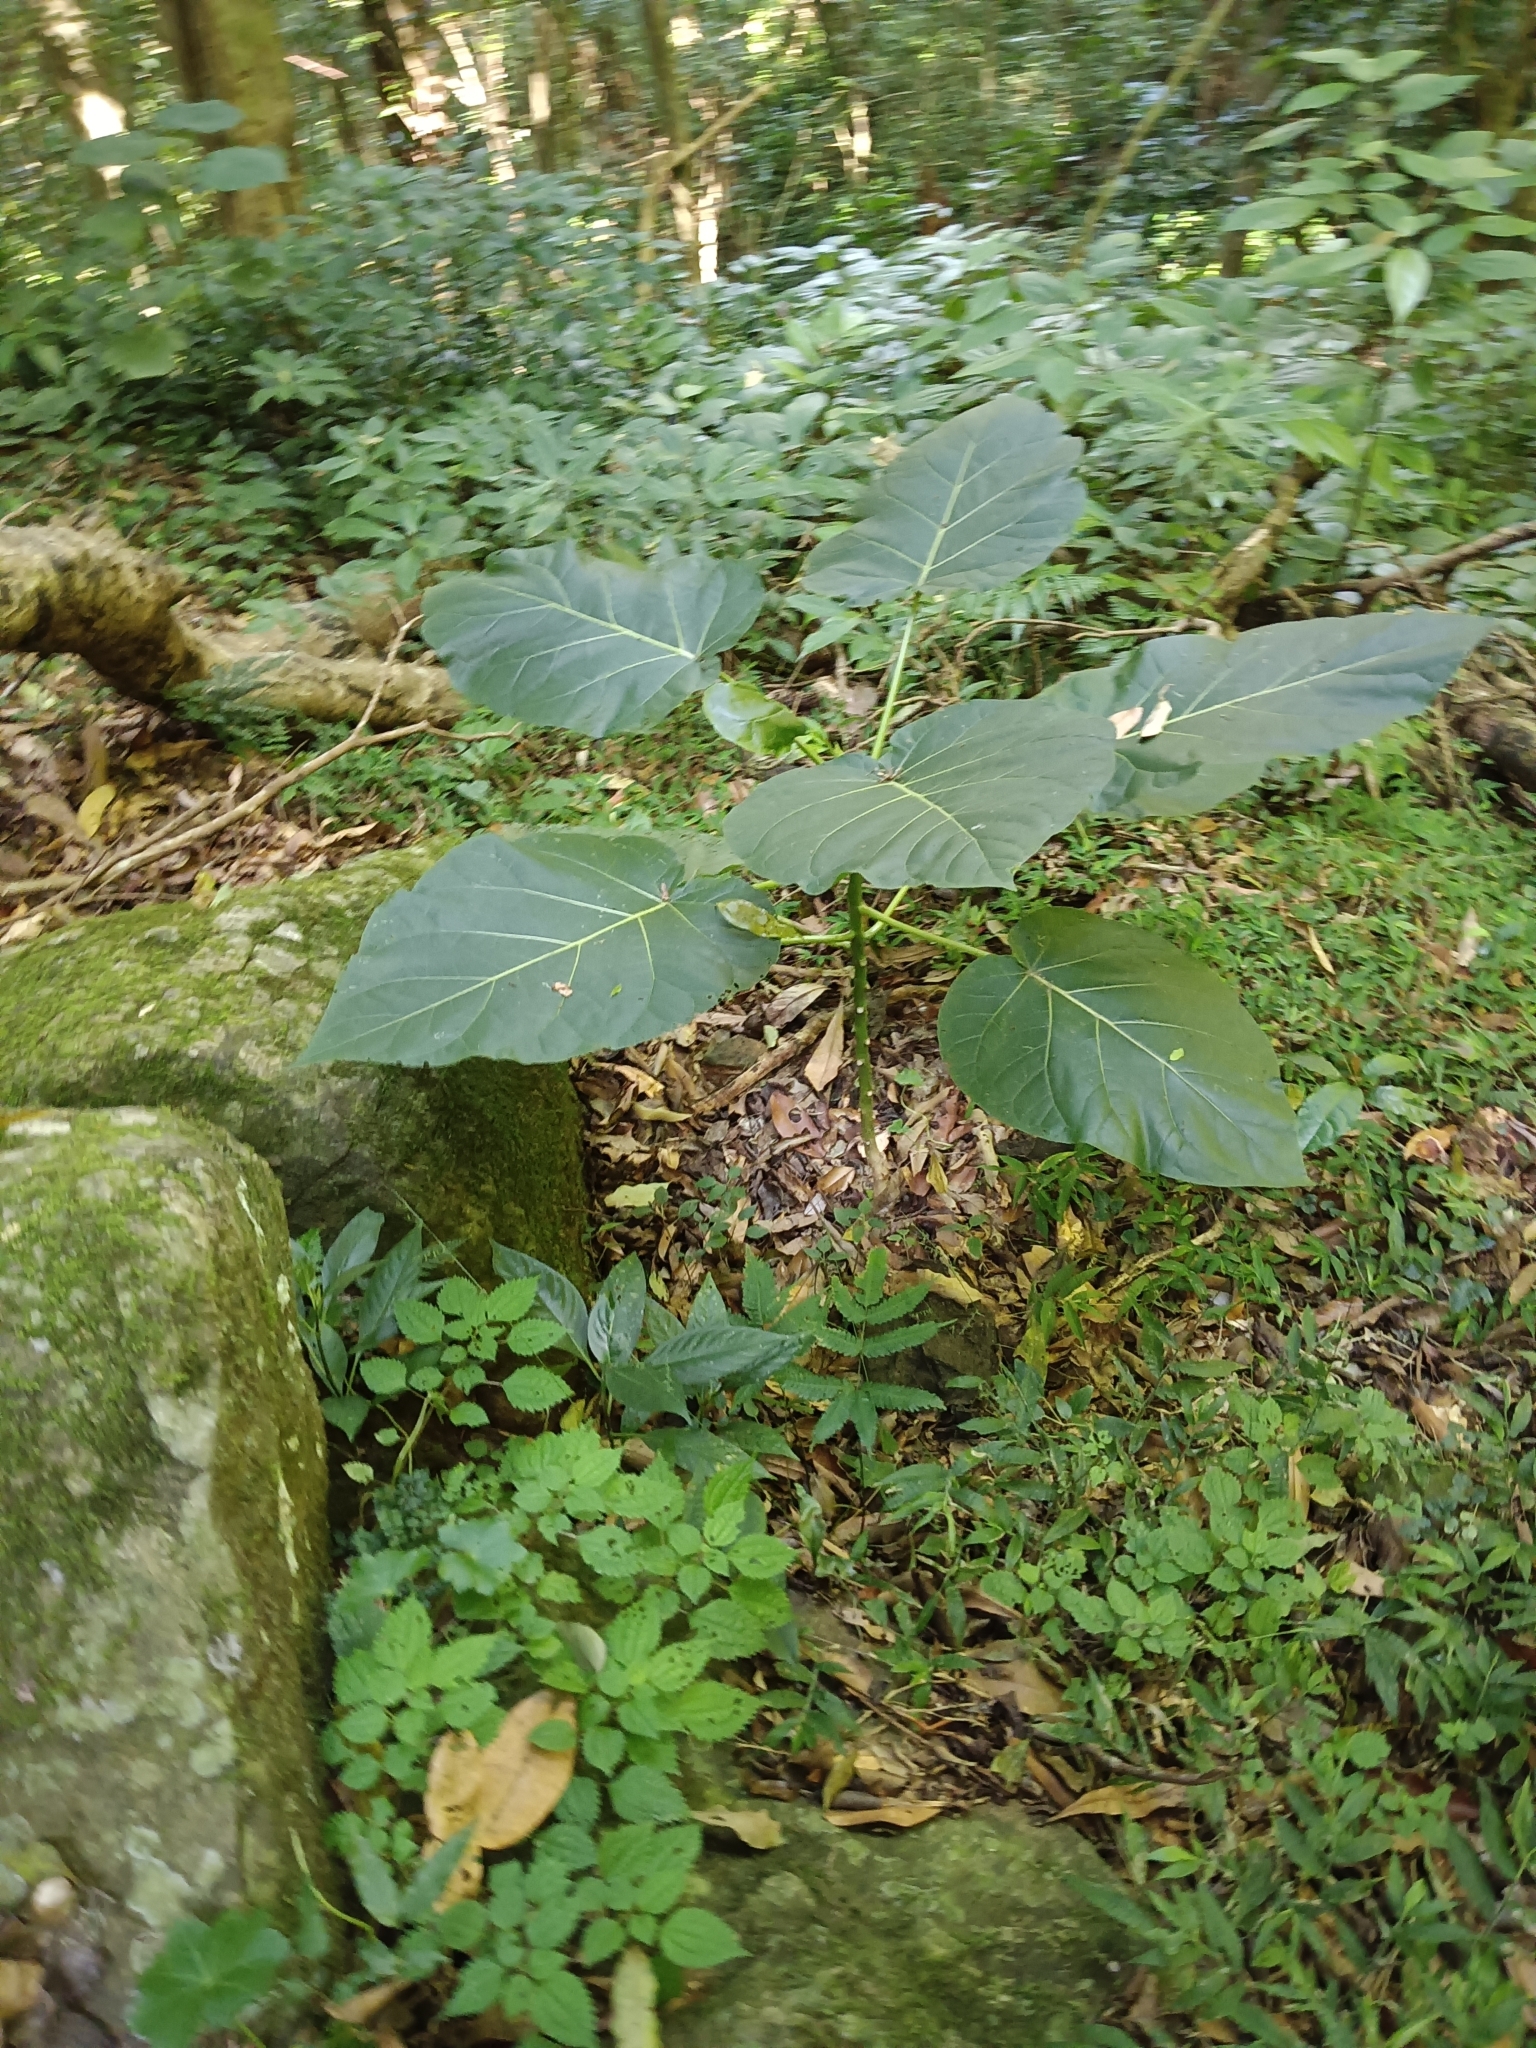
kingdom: Plantae
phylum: Tracheophyta
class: Magnoliopsida
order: Solanales
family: Solanaceae
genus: Solanum
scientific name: Solanum betaceum
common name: Tamarillo
